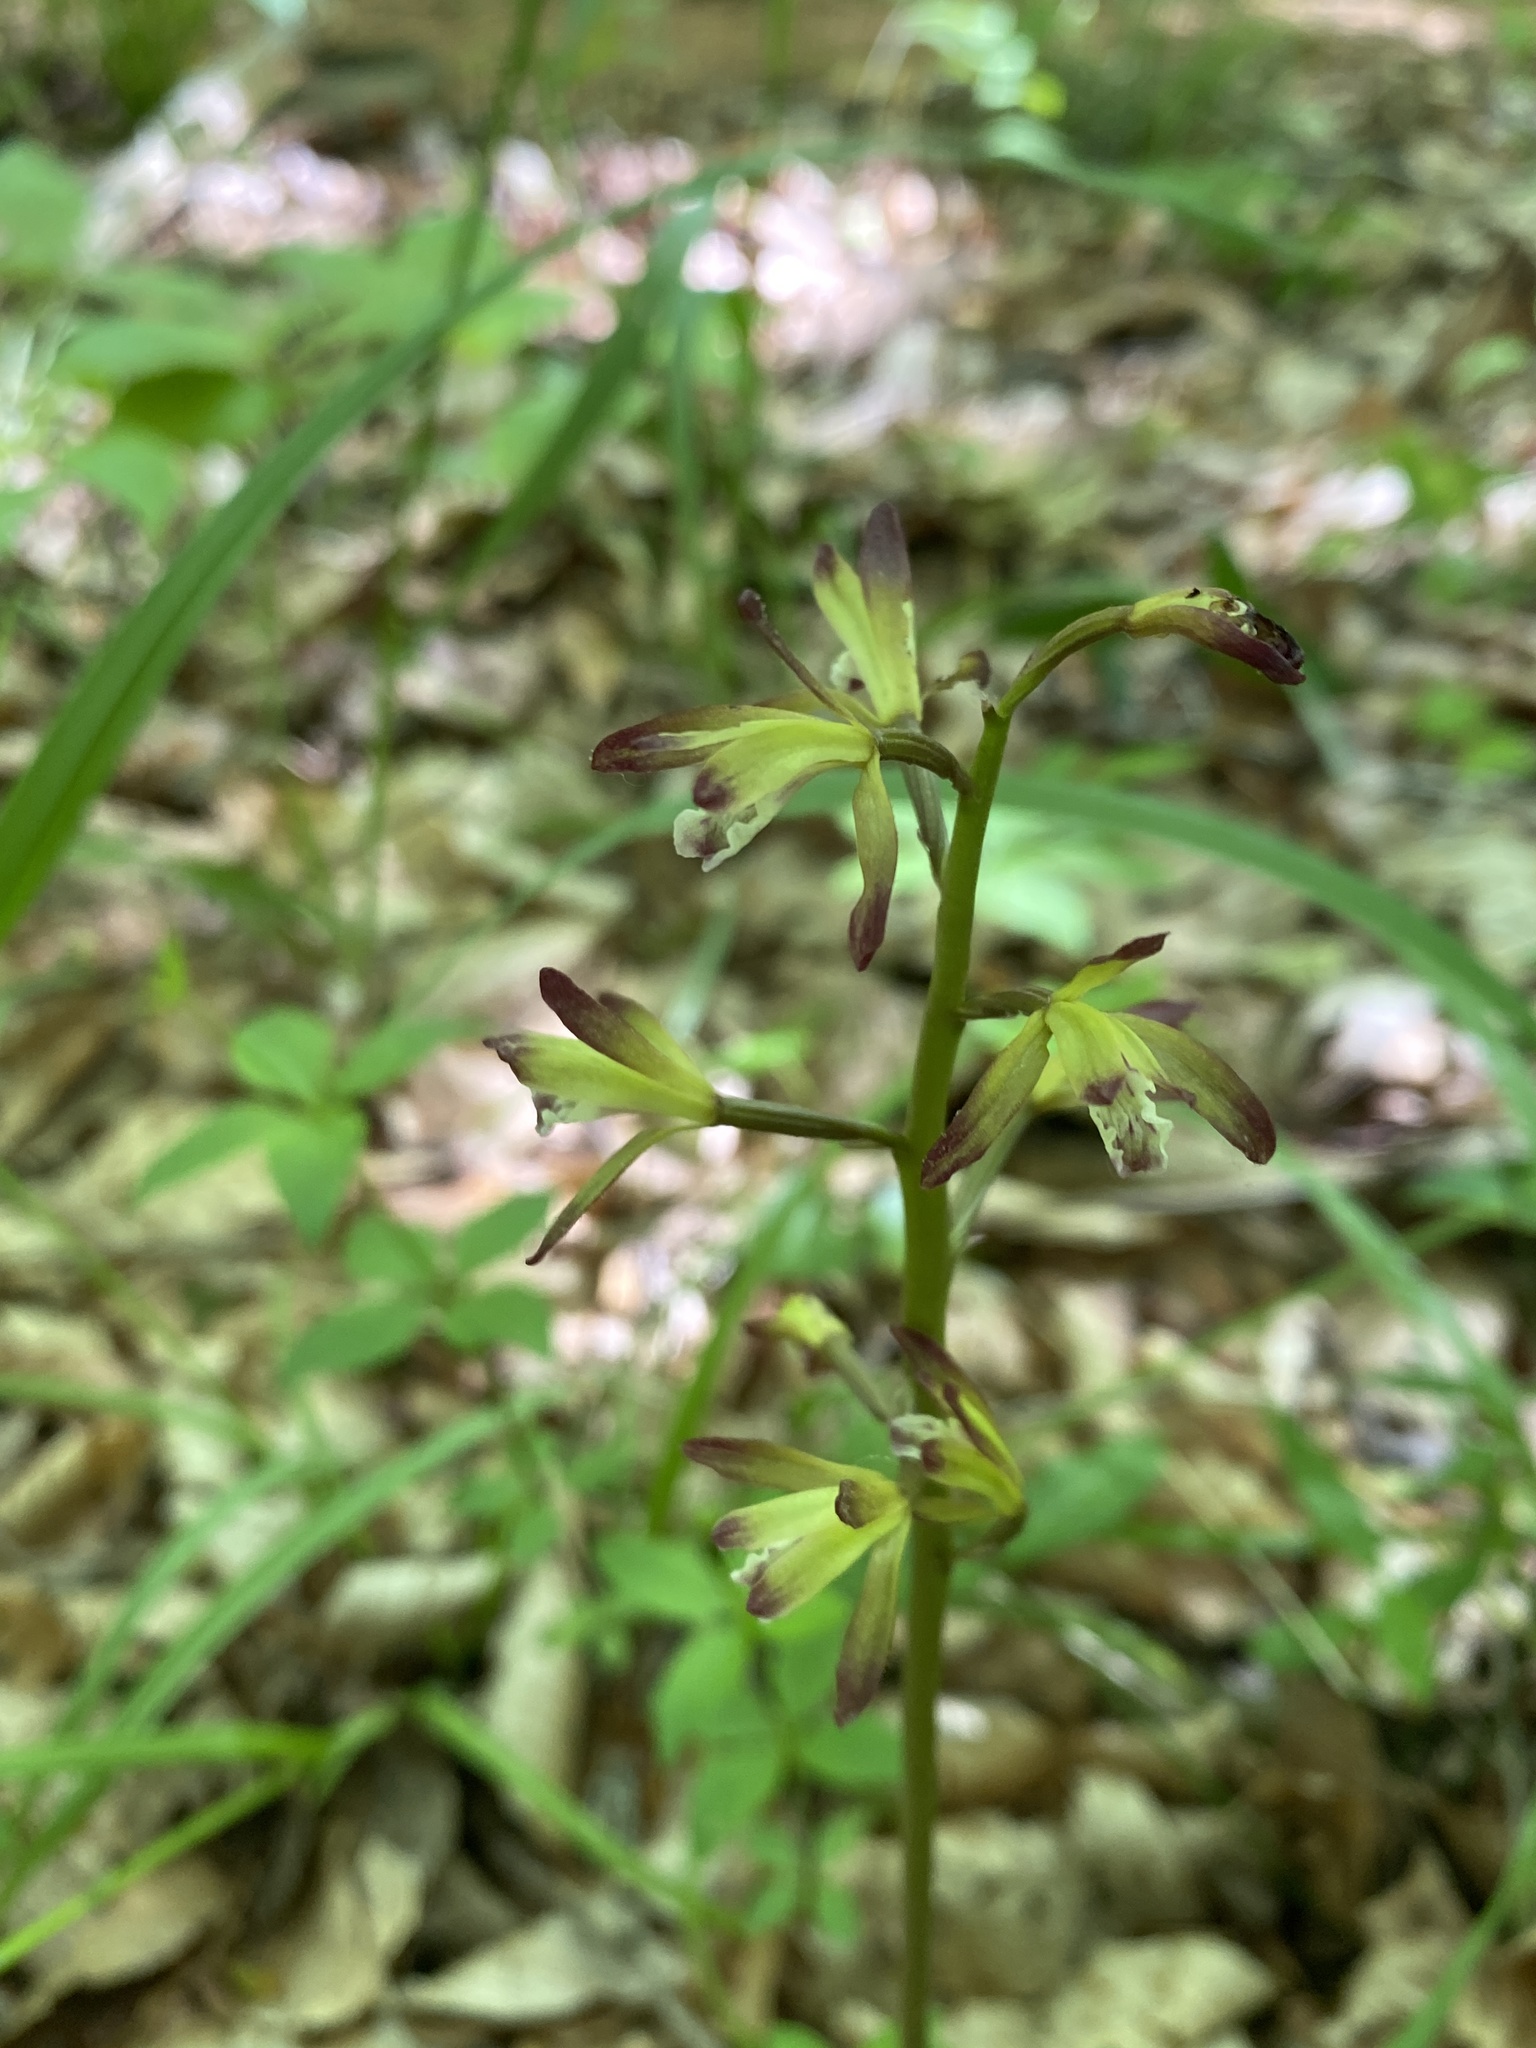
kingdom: Plantae
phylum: Tracheophyta
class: Liliopsida
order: Asparagales
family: Orchidaceae
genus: Aplectrum
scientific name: Aplectrum hyemale
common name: Adam-and-eve
